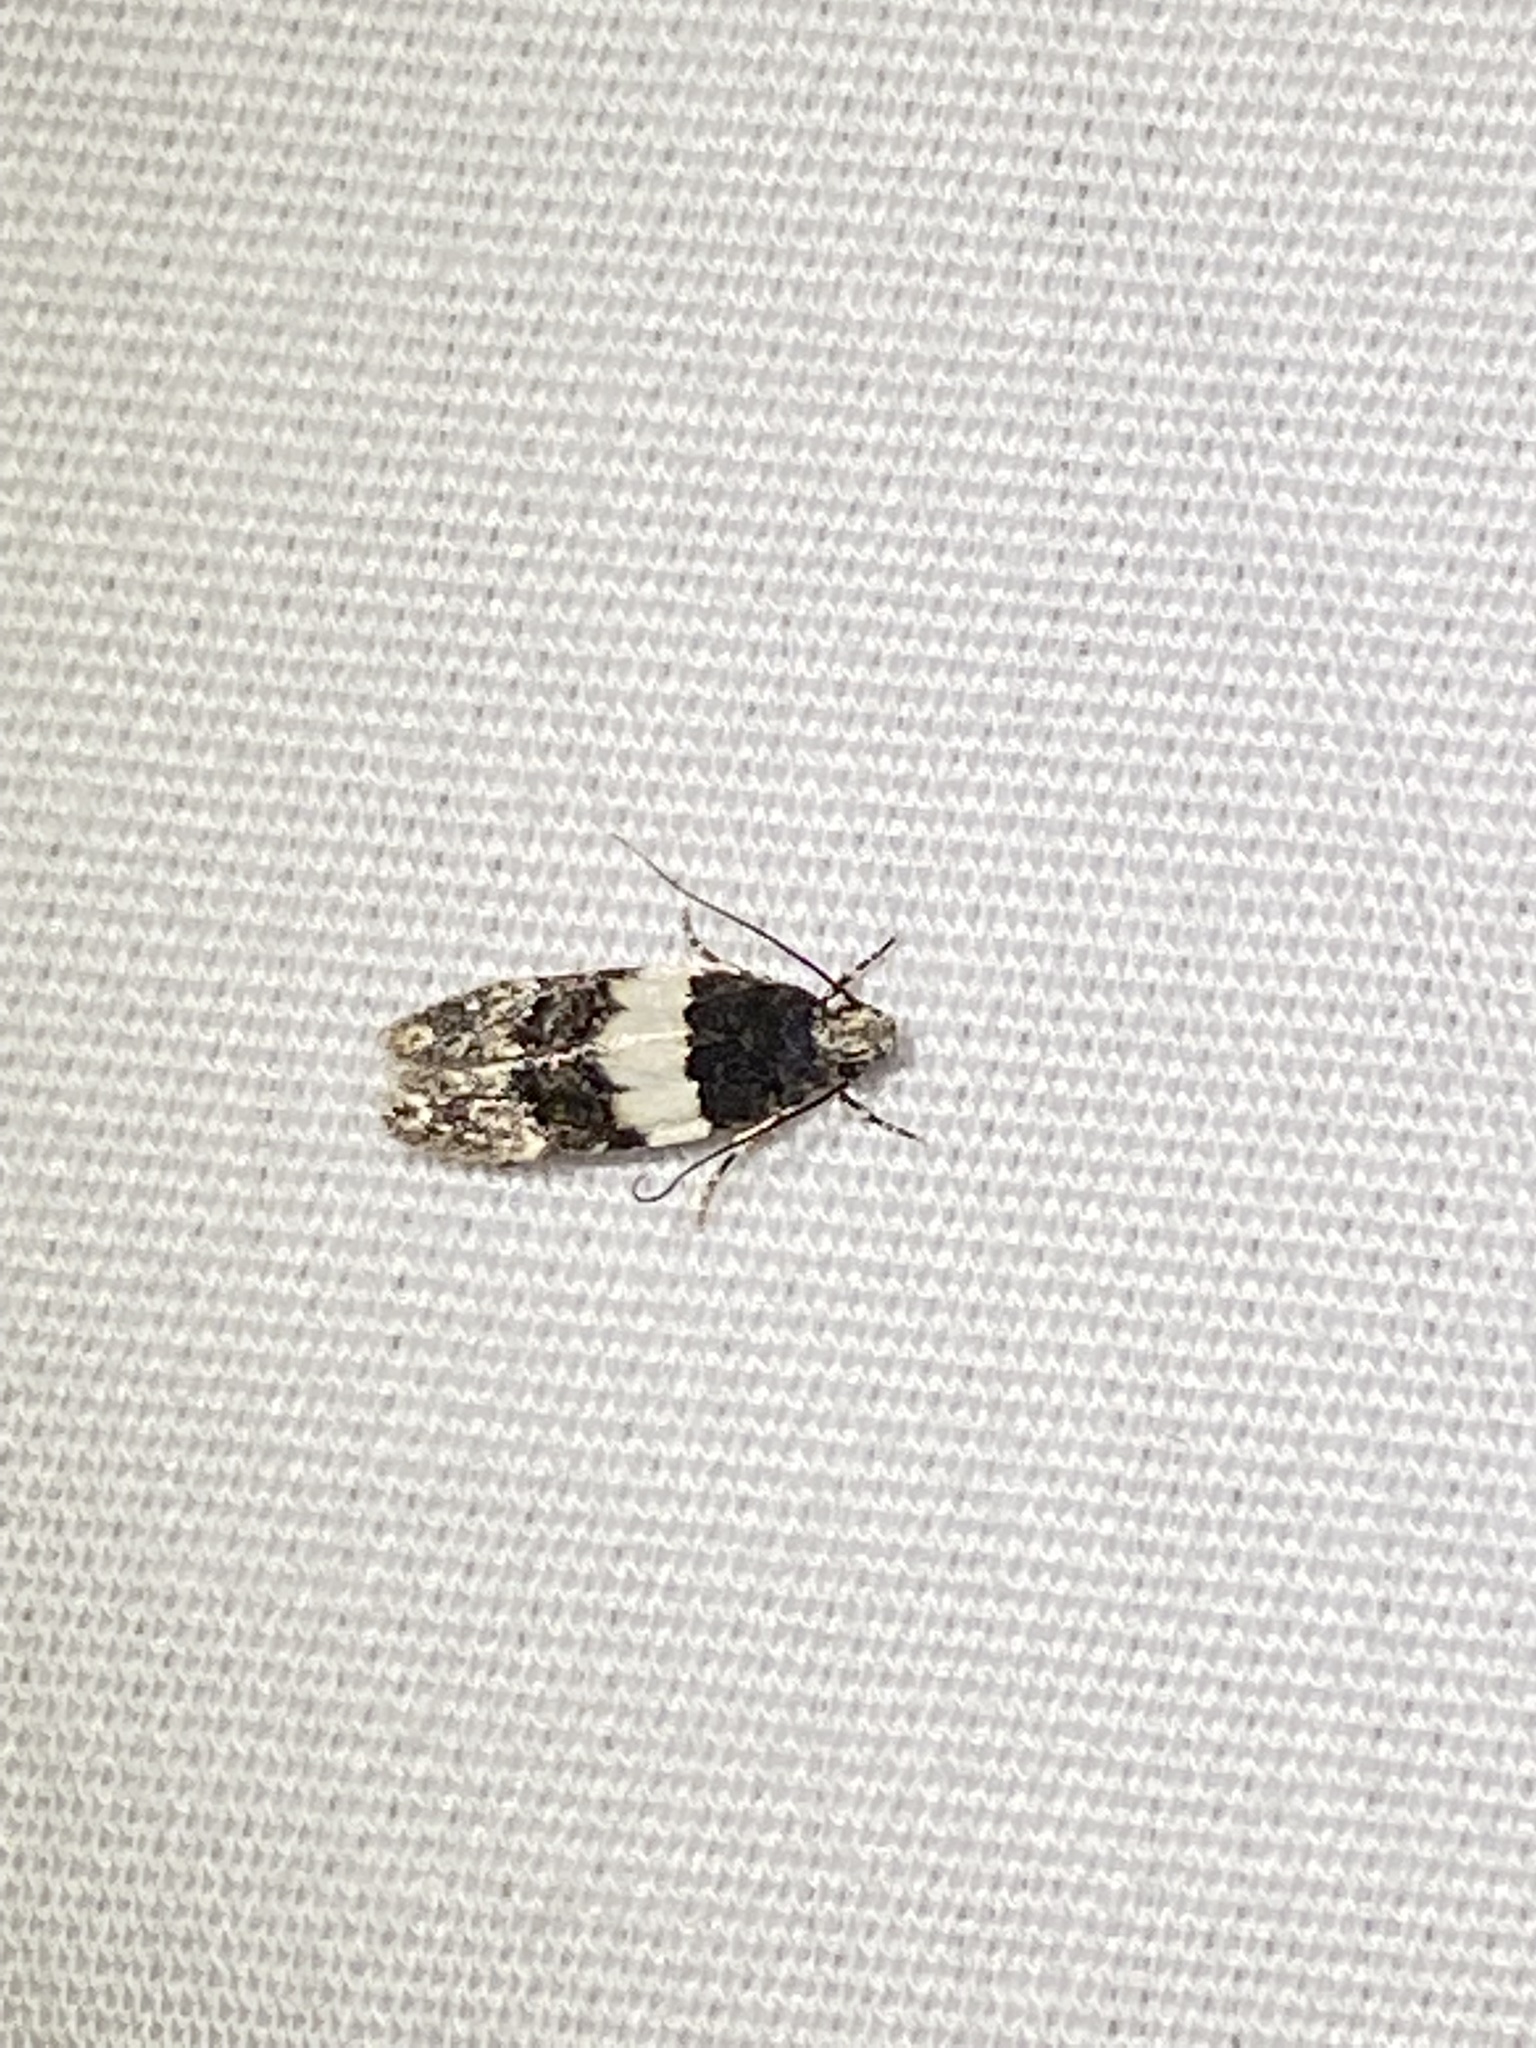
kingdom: Animalia
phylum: Arthropoda
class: Insecta
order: Lepidoptera
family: Gelechiidae
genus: Pubitelphusa
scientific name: Pubitelphusa latifasciella
